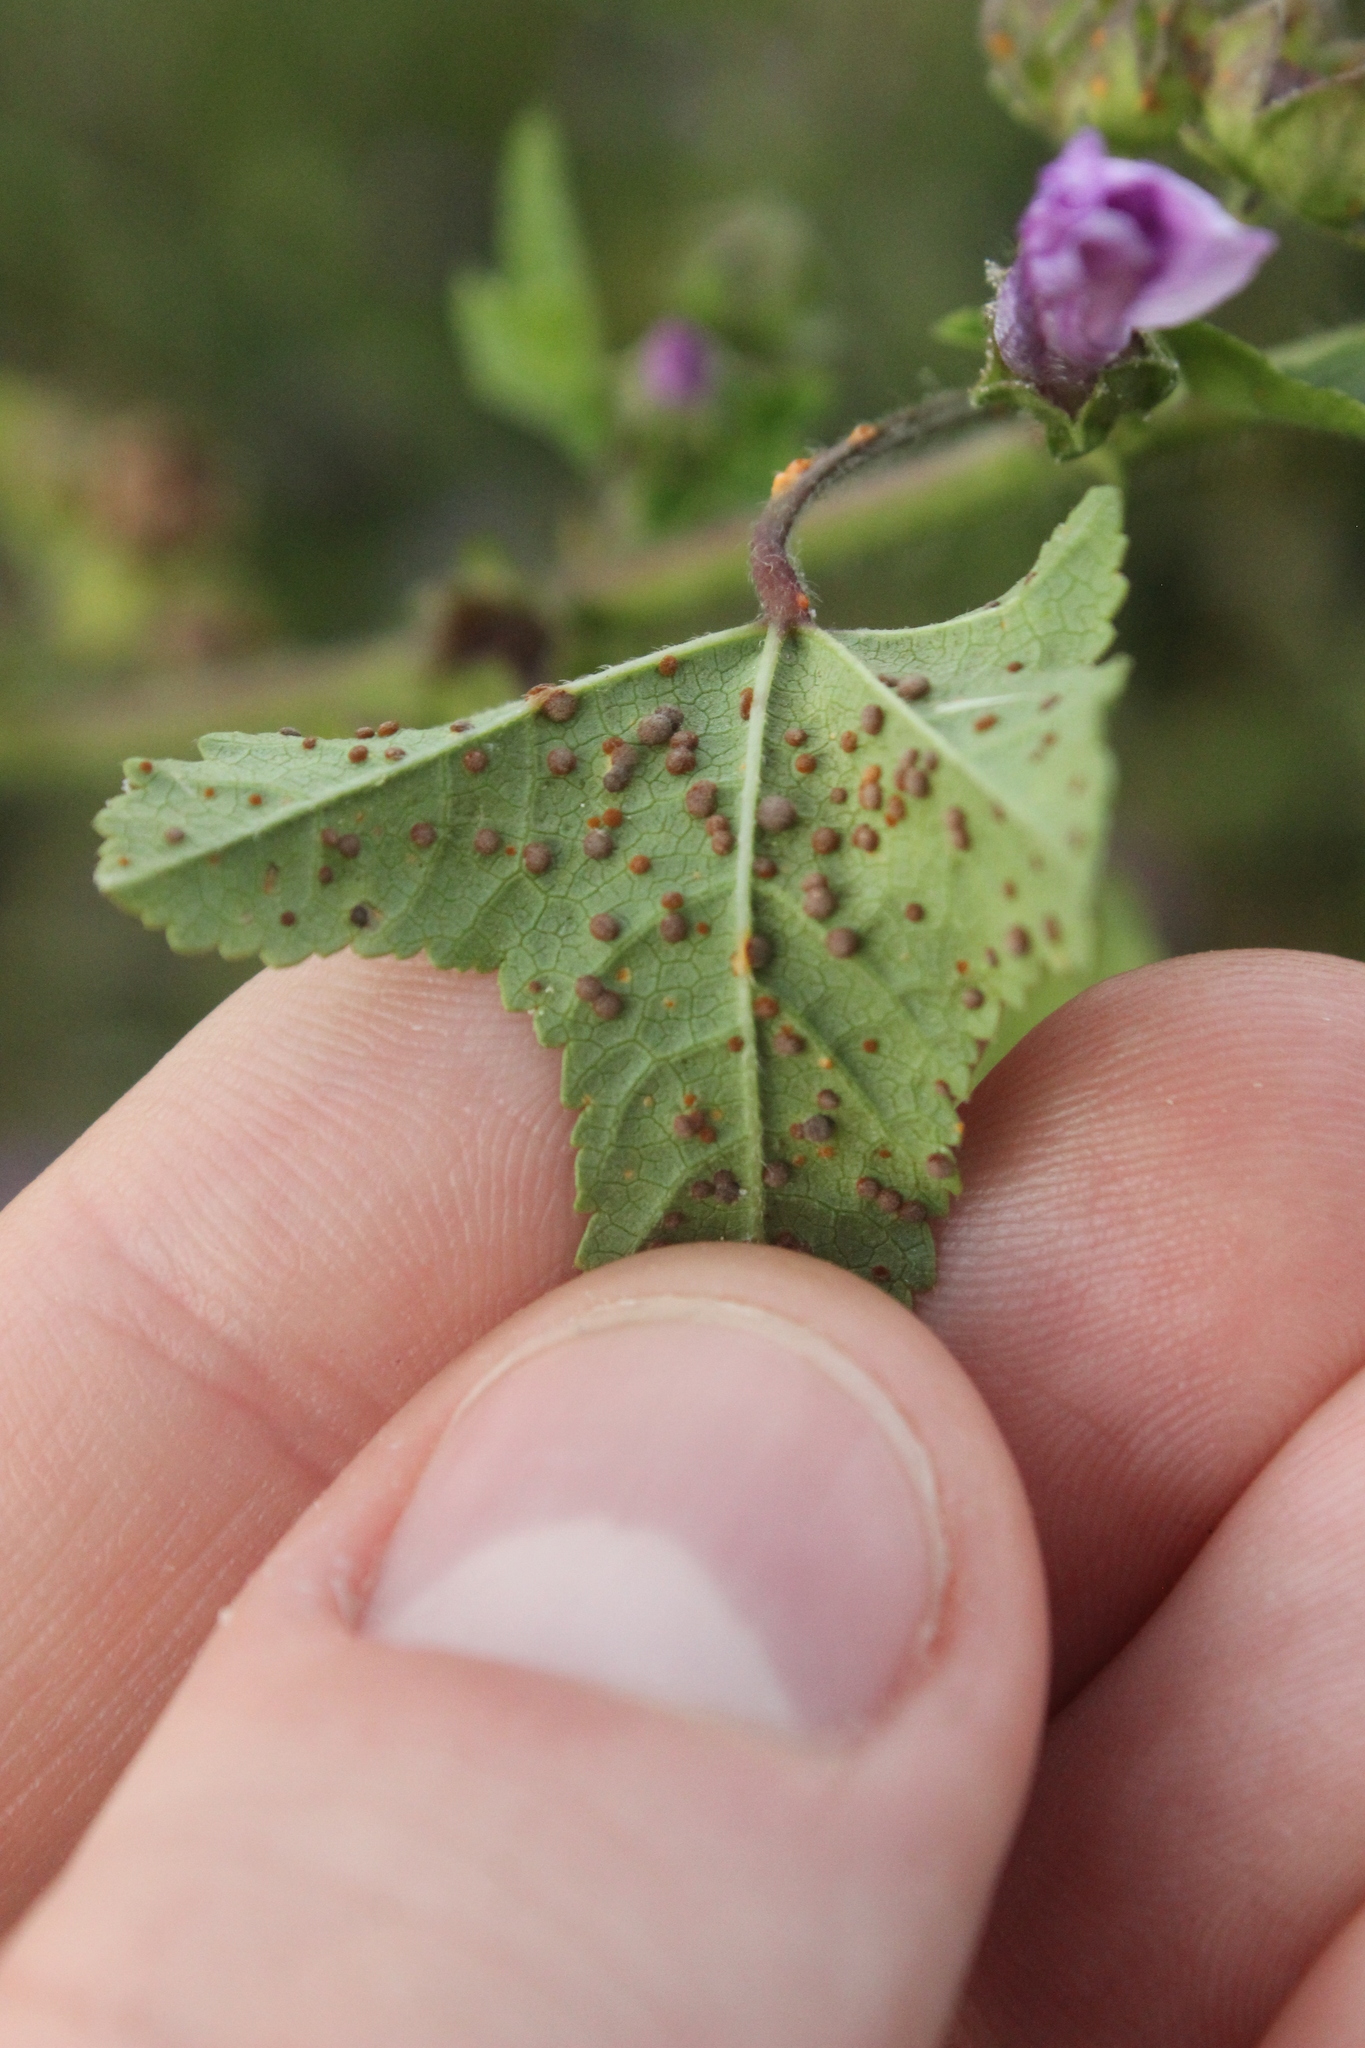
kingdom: Fungi
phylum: Basidiomycota
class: Pucciniomycetes
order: Pucciniales
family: Pucciniaceae
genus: Puccinia
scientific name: Puccinia malvacearum
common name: Hollyhock rust
